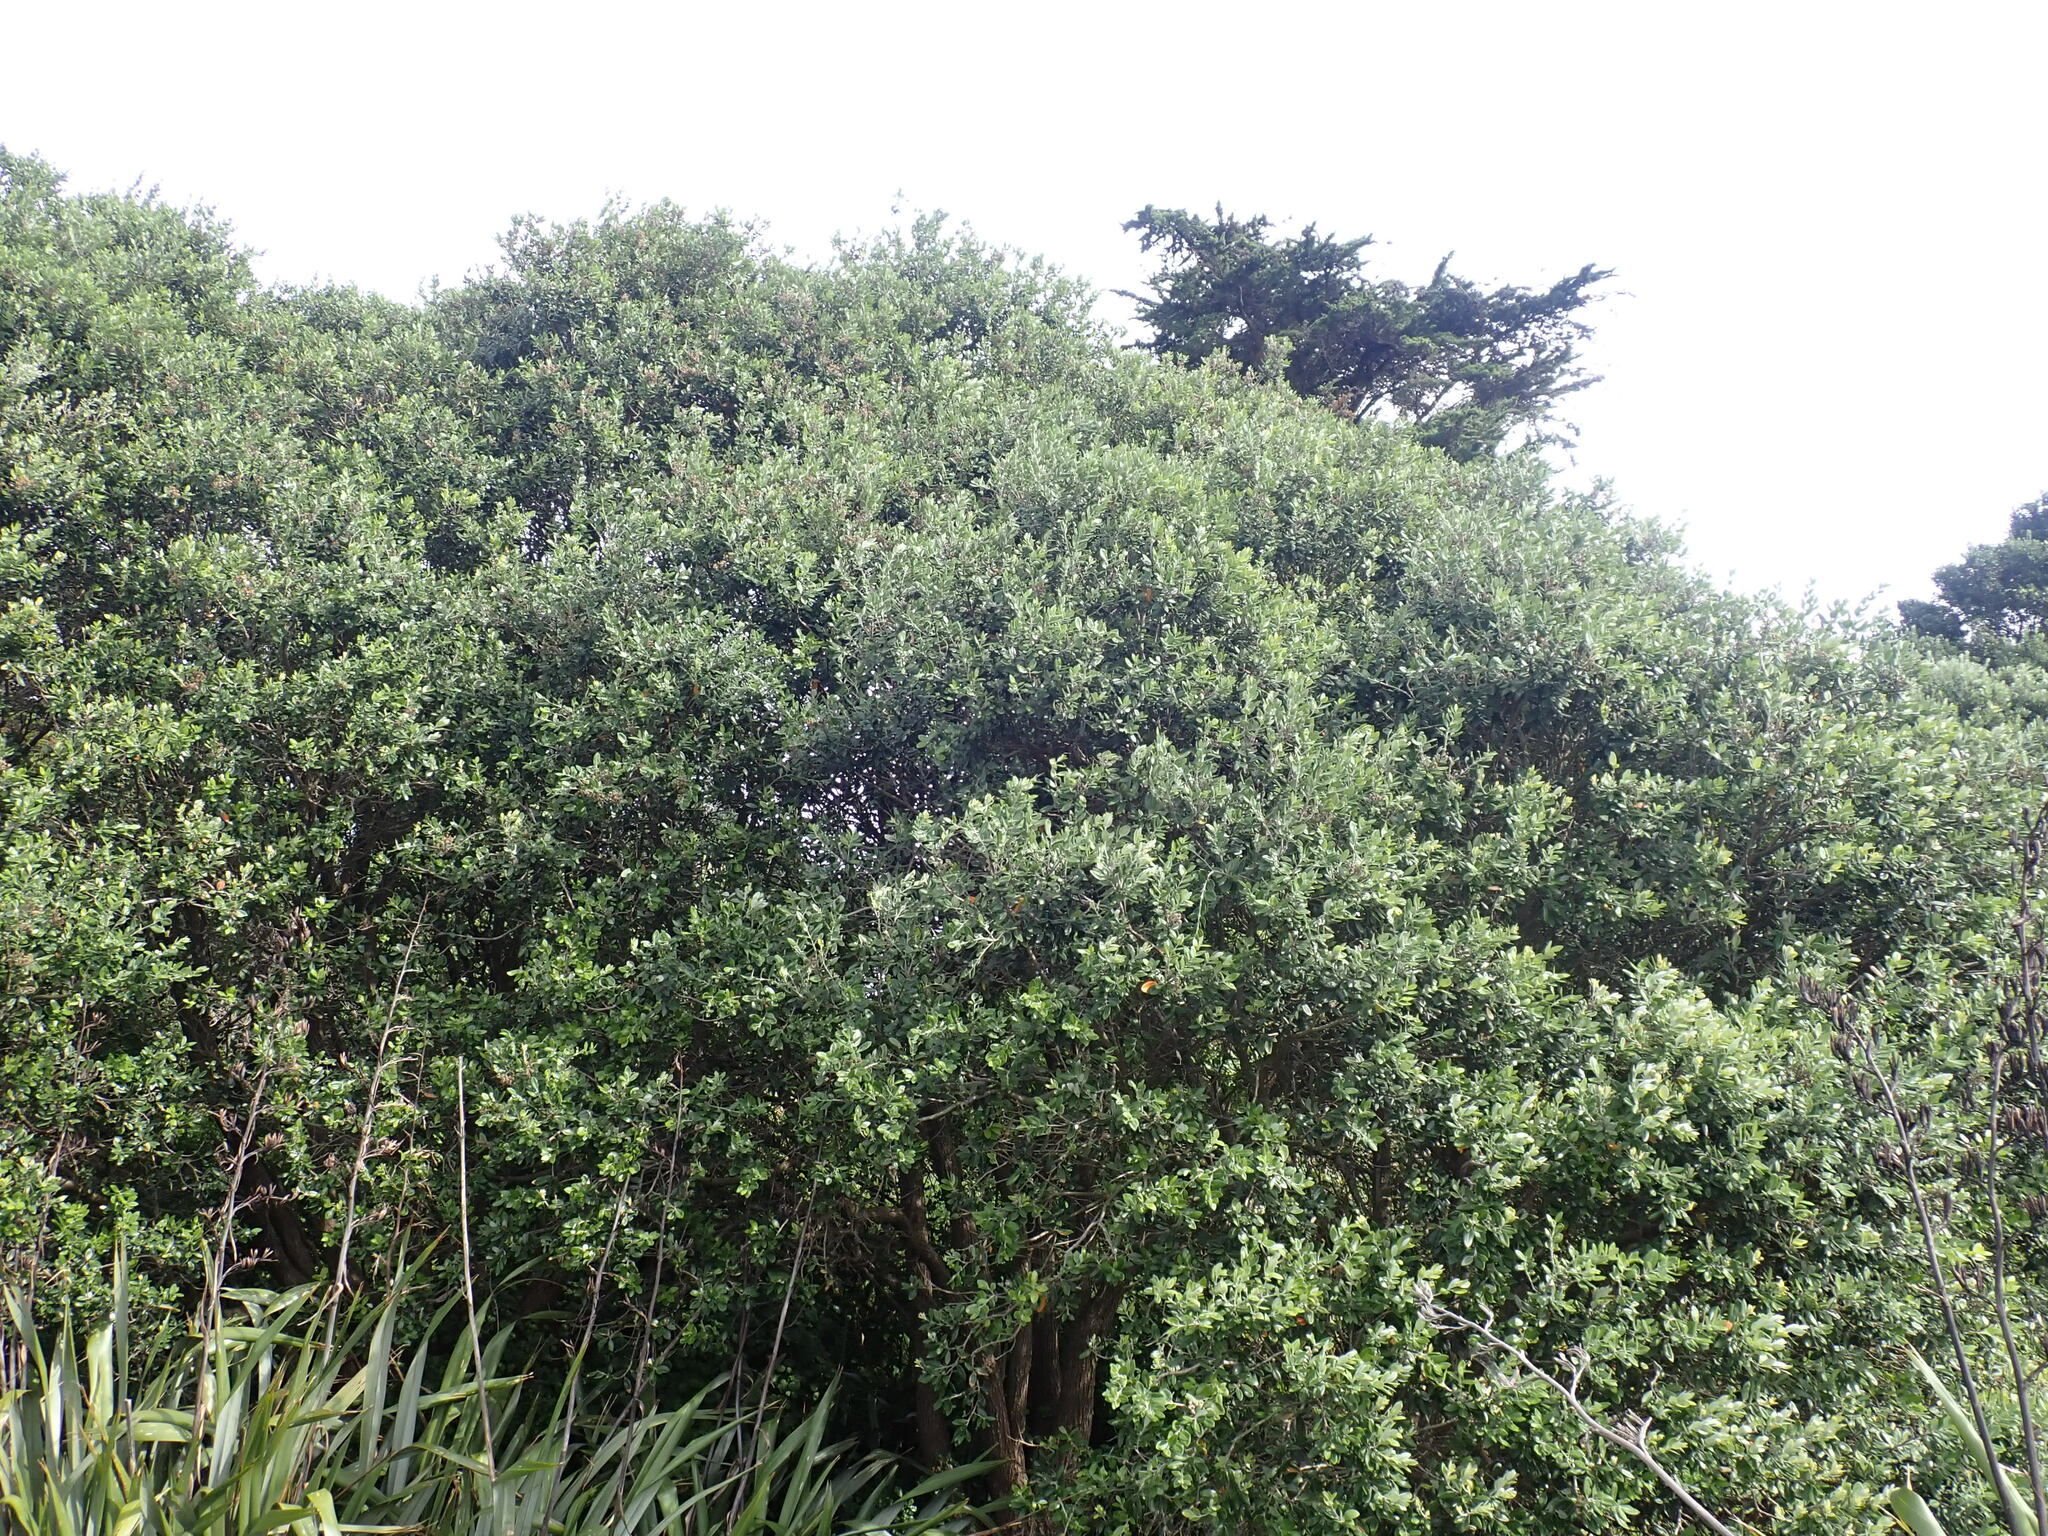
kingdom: Plantae
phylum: Tracheophyta
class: Magnoliopsida
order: Myrtales
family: Myrtaceae
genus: Metrosideros
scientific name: Metrosideros excelsa
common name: New zealand christmastree
